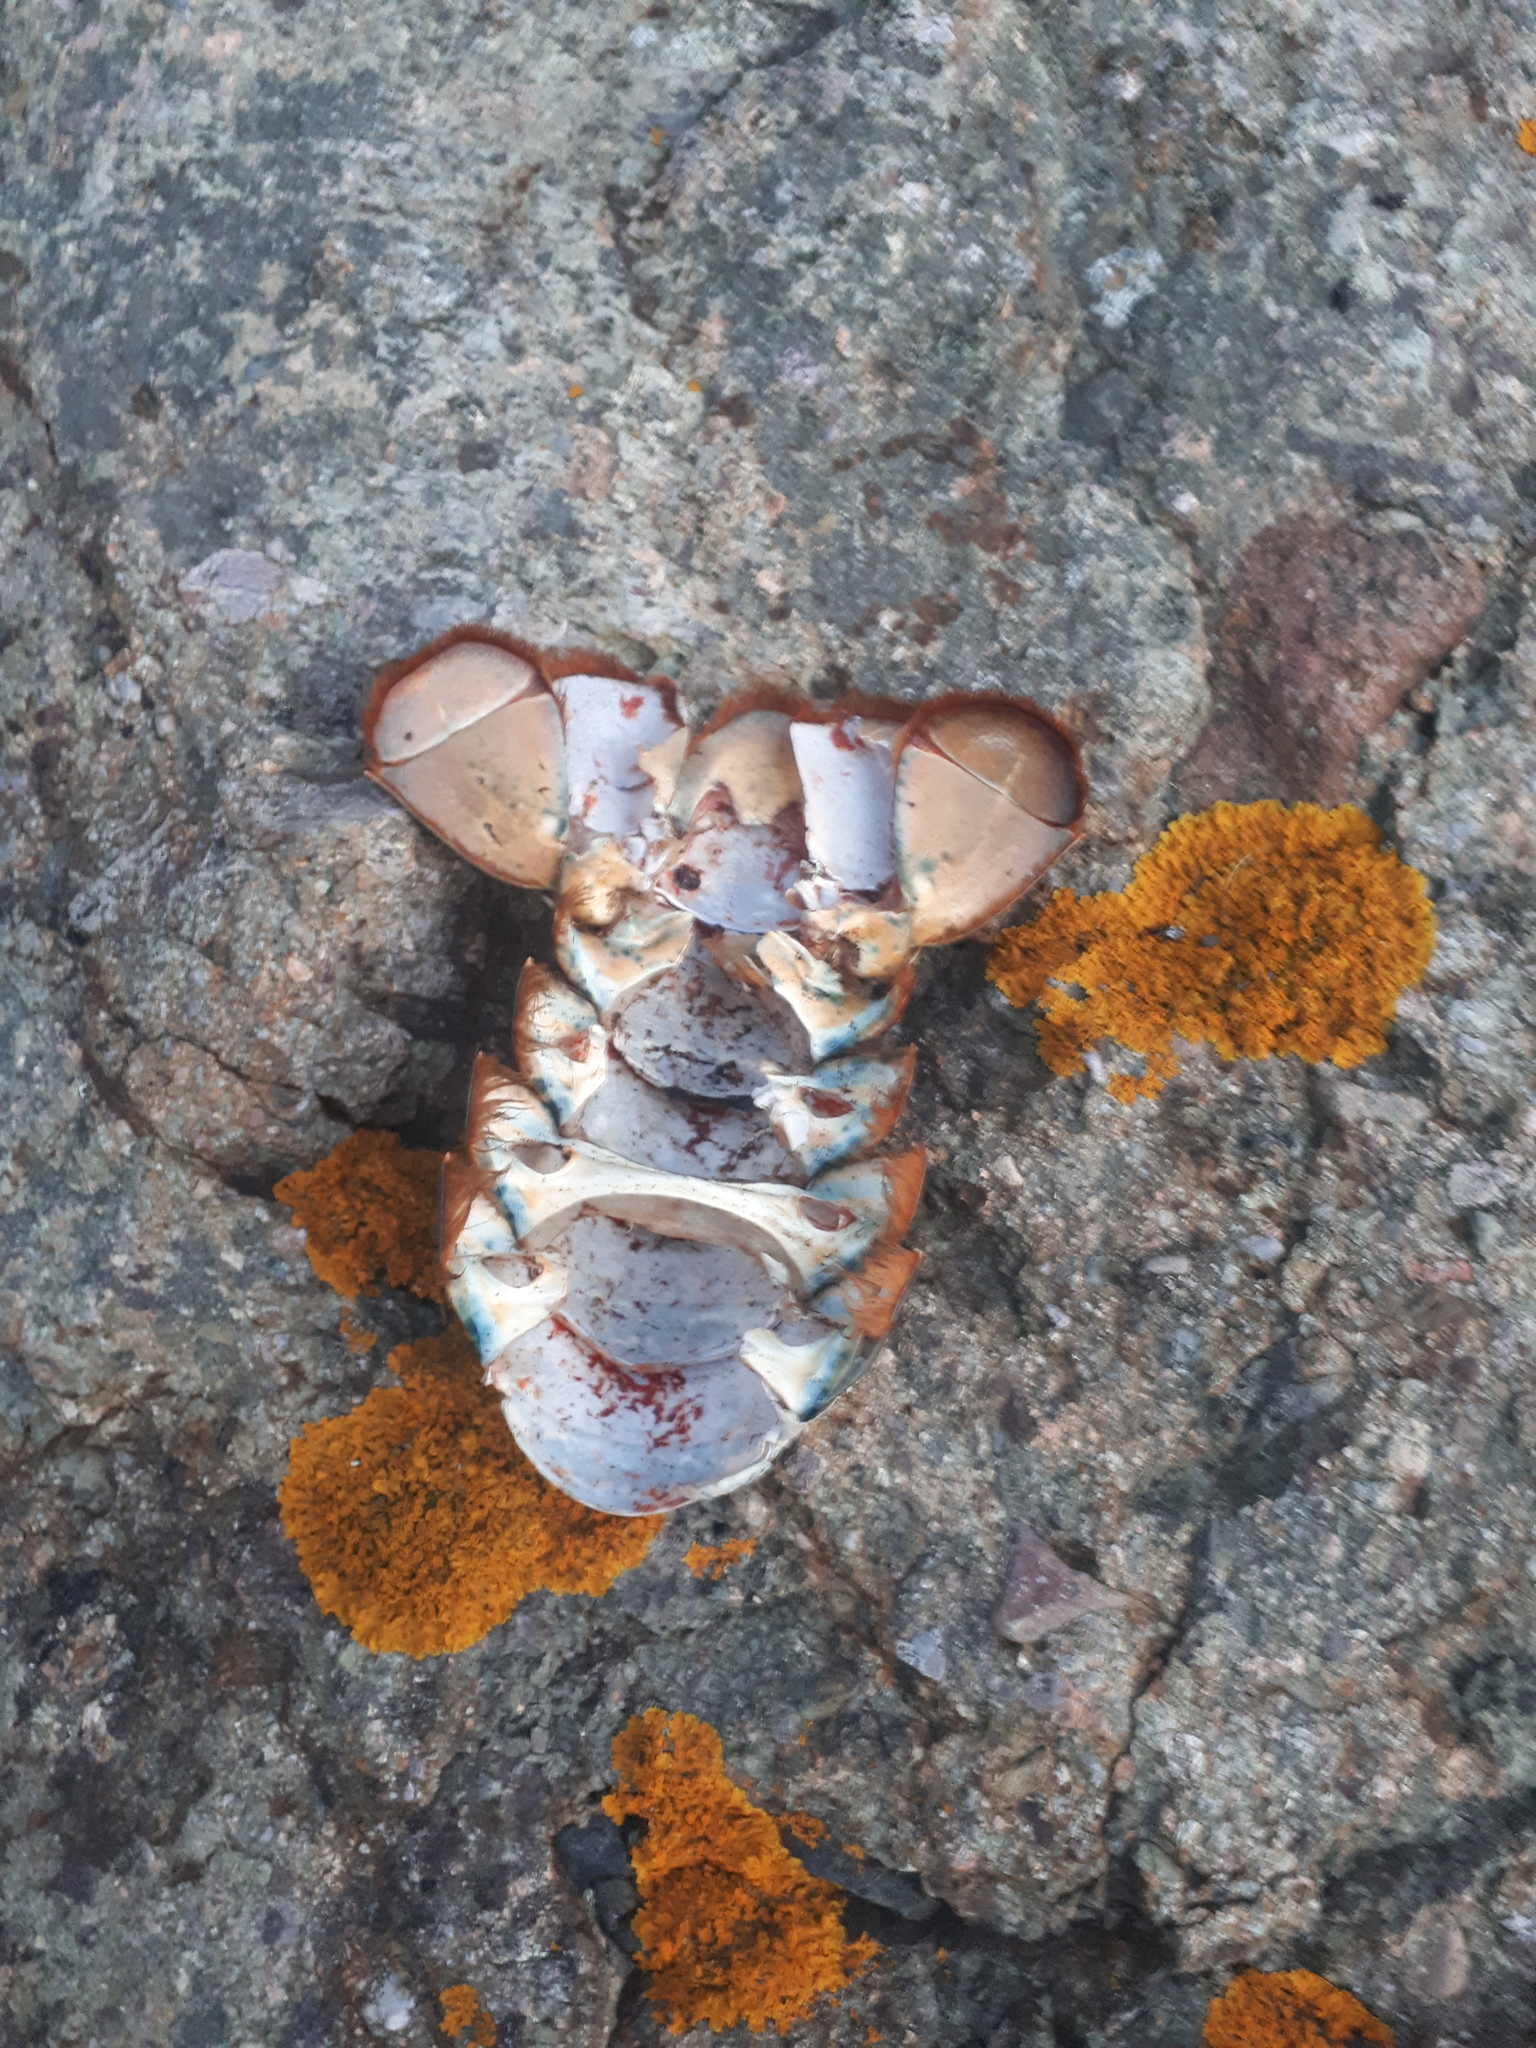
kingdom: Animalia
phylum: Arthropoda
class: Malacostraca
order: Decapoda
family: Nephropidae
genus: Homarus
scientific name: Homarus americanus
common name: American lobster
